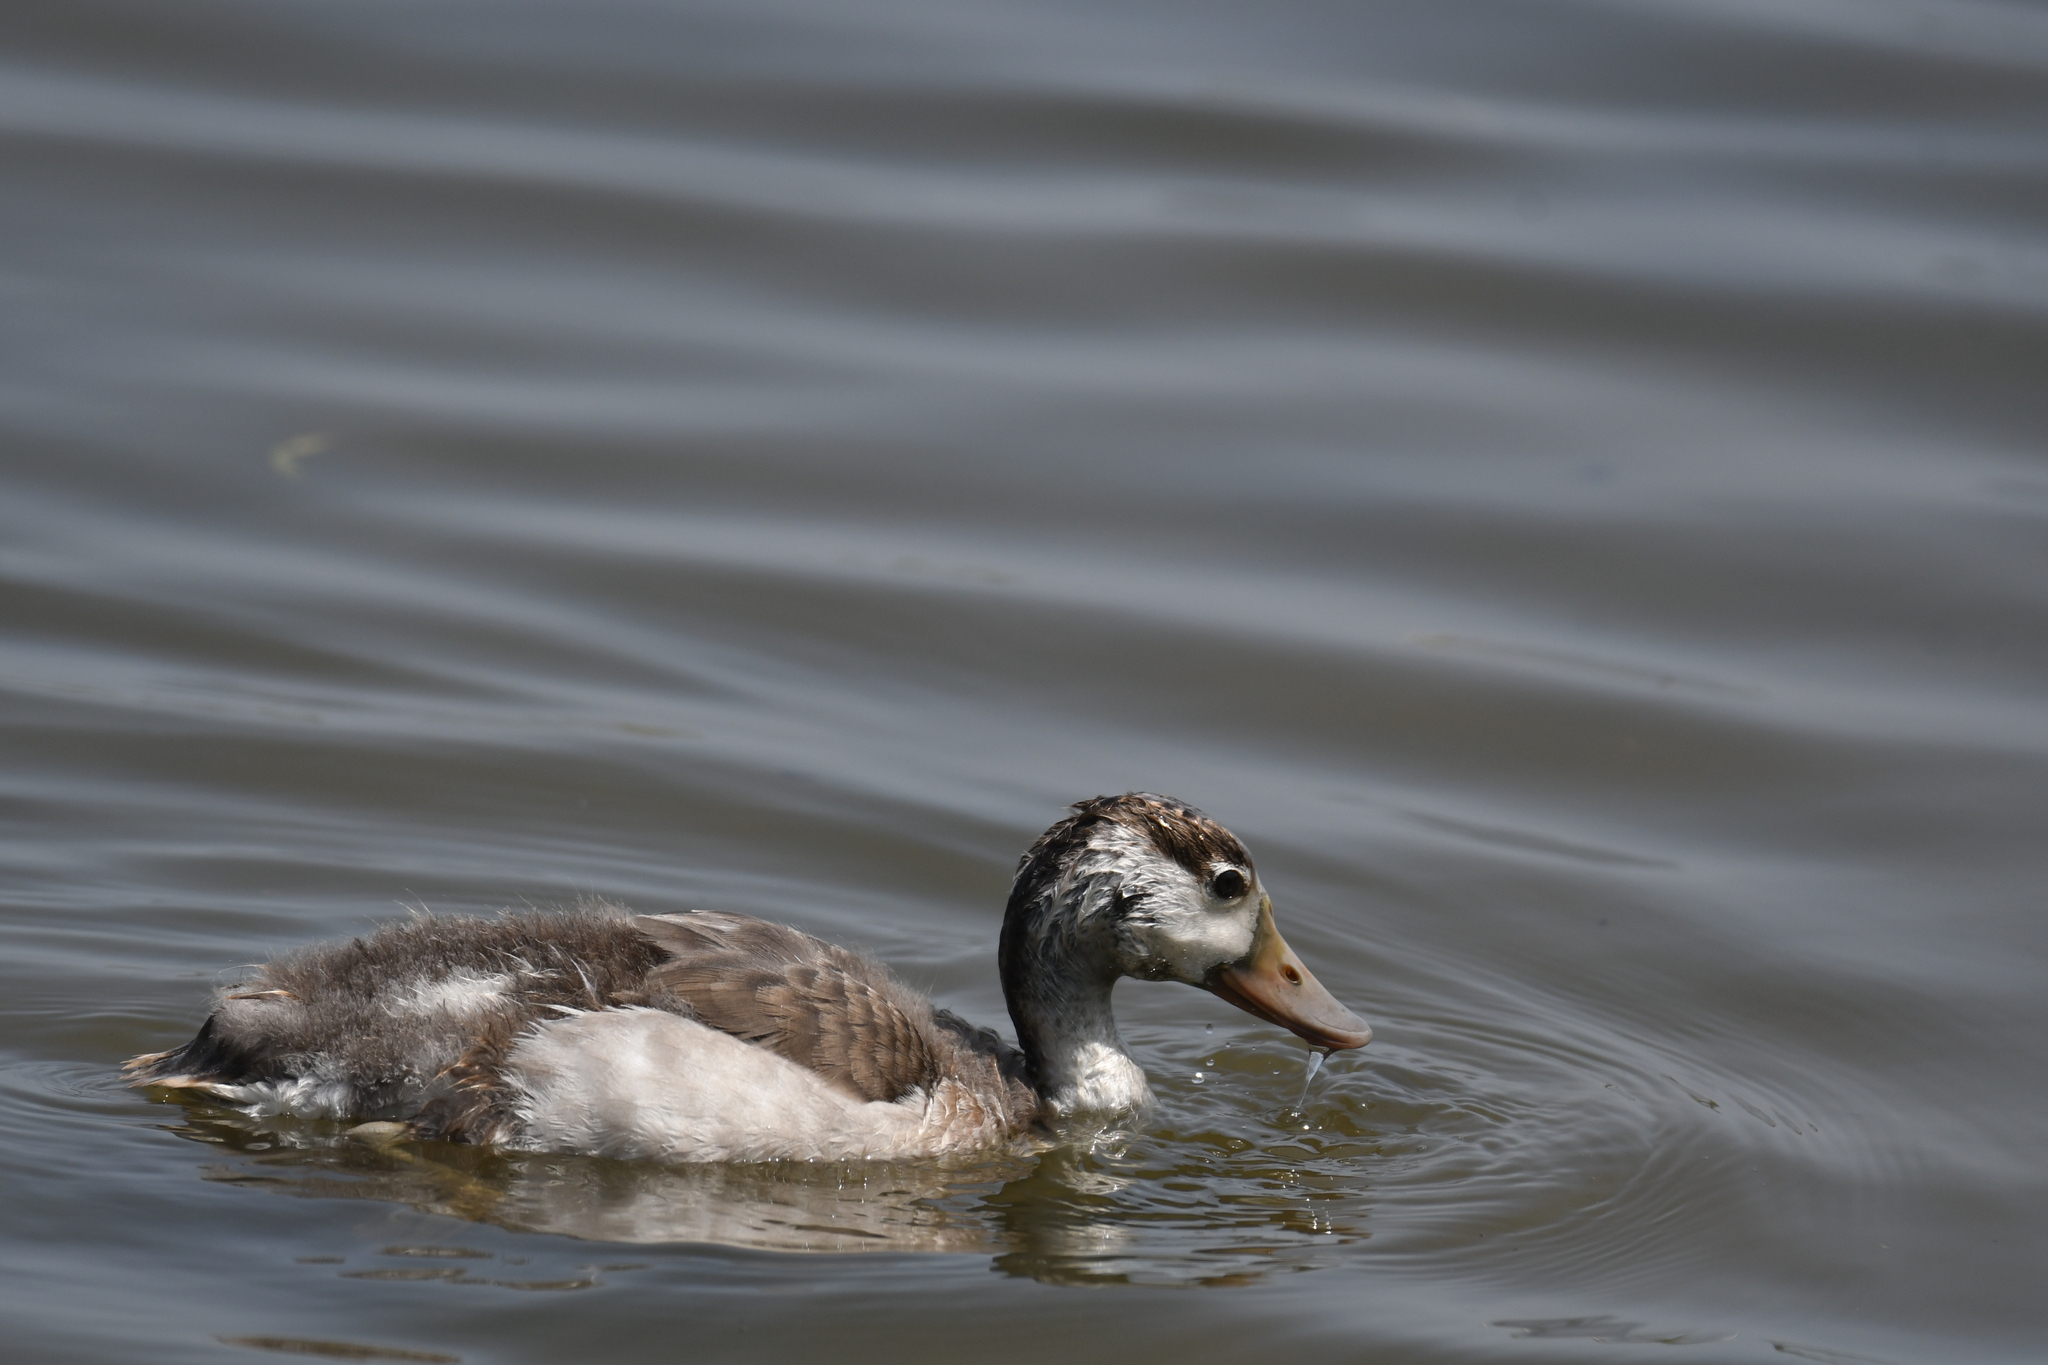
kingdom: Animalia
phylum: Chordata
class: Aves
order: Anseriformes
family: Anatidae
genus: Tadorna
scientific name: Tadorna tadorna
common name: Common shelduck
